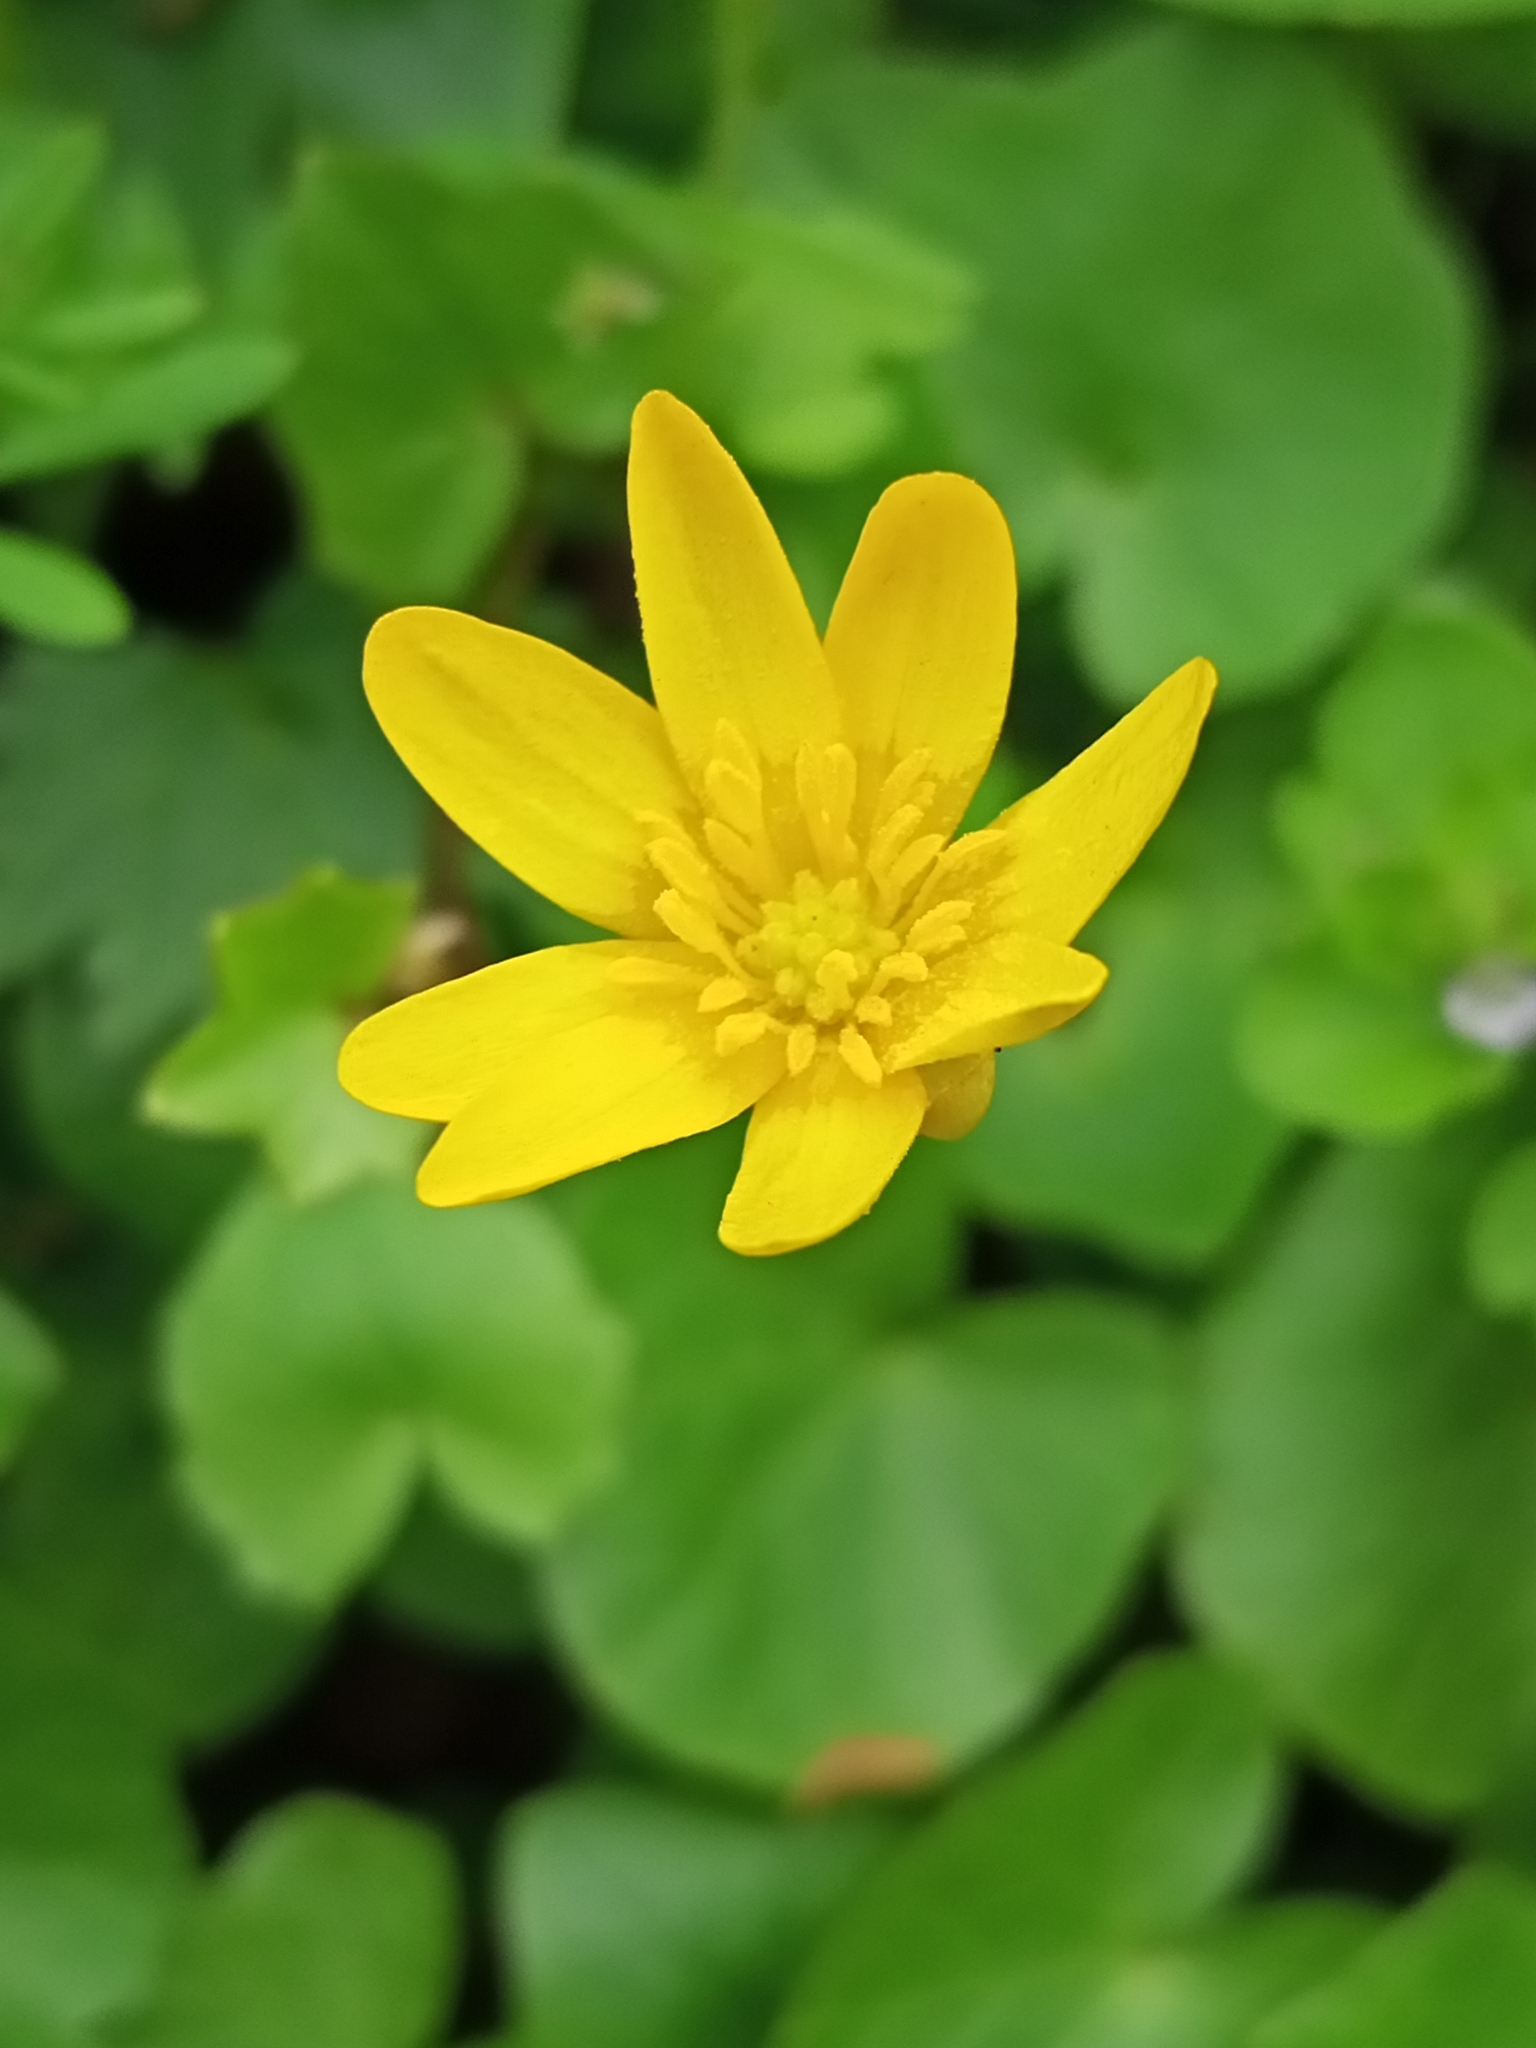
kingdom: Plantae
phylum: Tracheophyta
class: Magnoliopsida
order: Ranunculales
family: Ranunculaceae
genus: Ficaria
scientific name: Ficaria verna
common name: Lesser celandine
